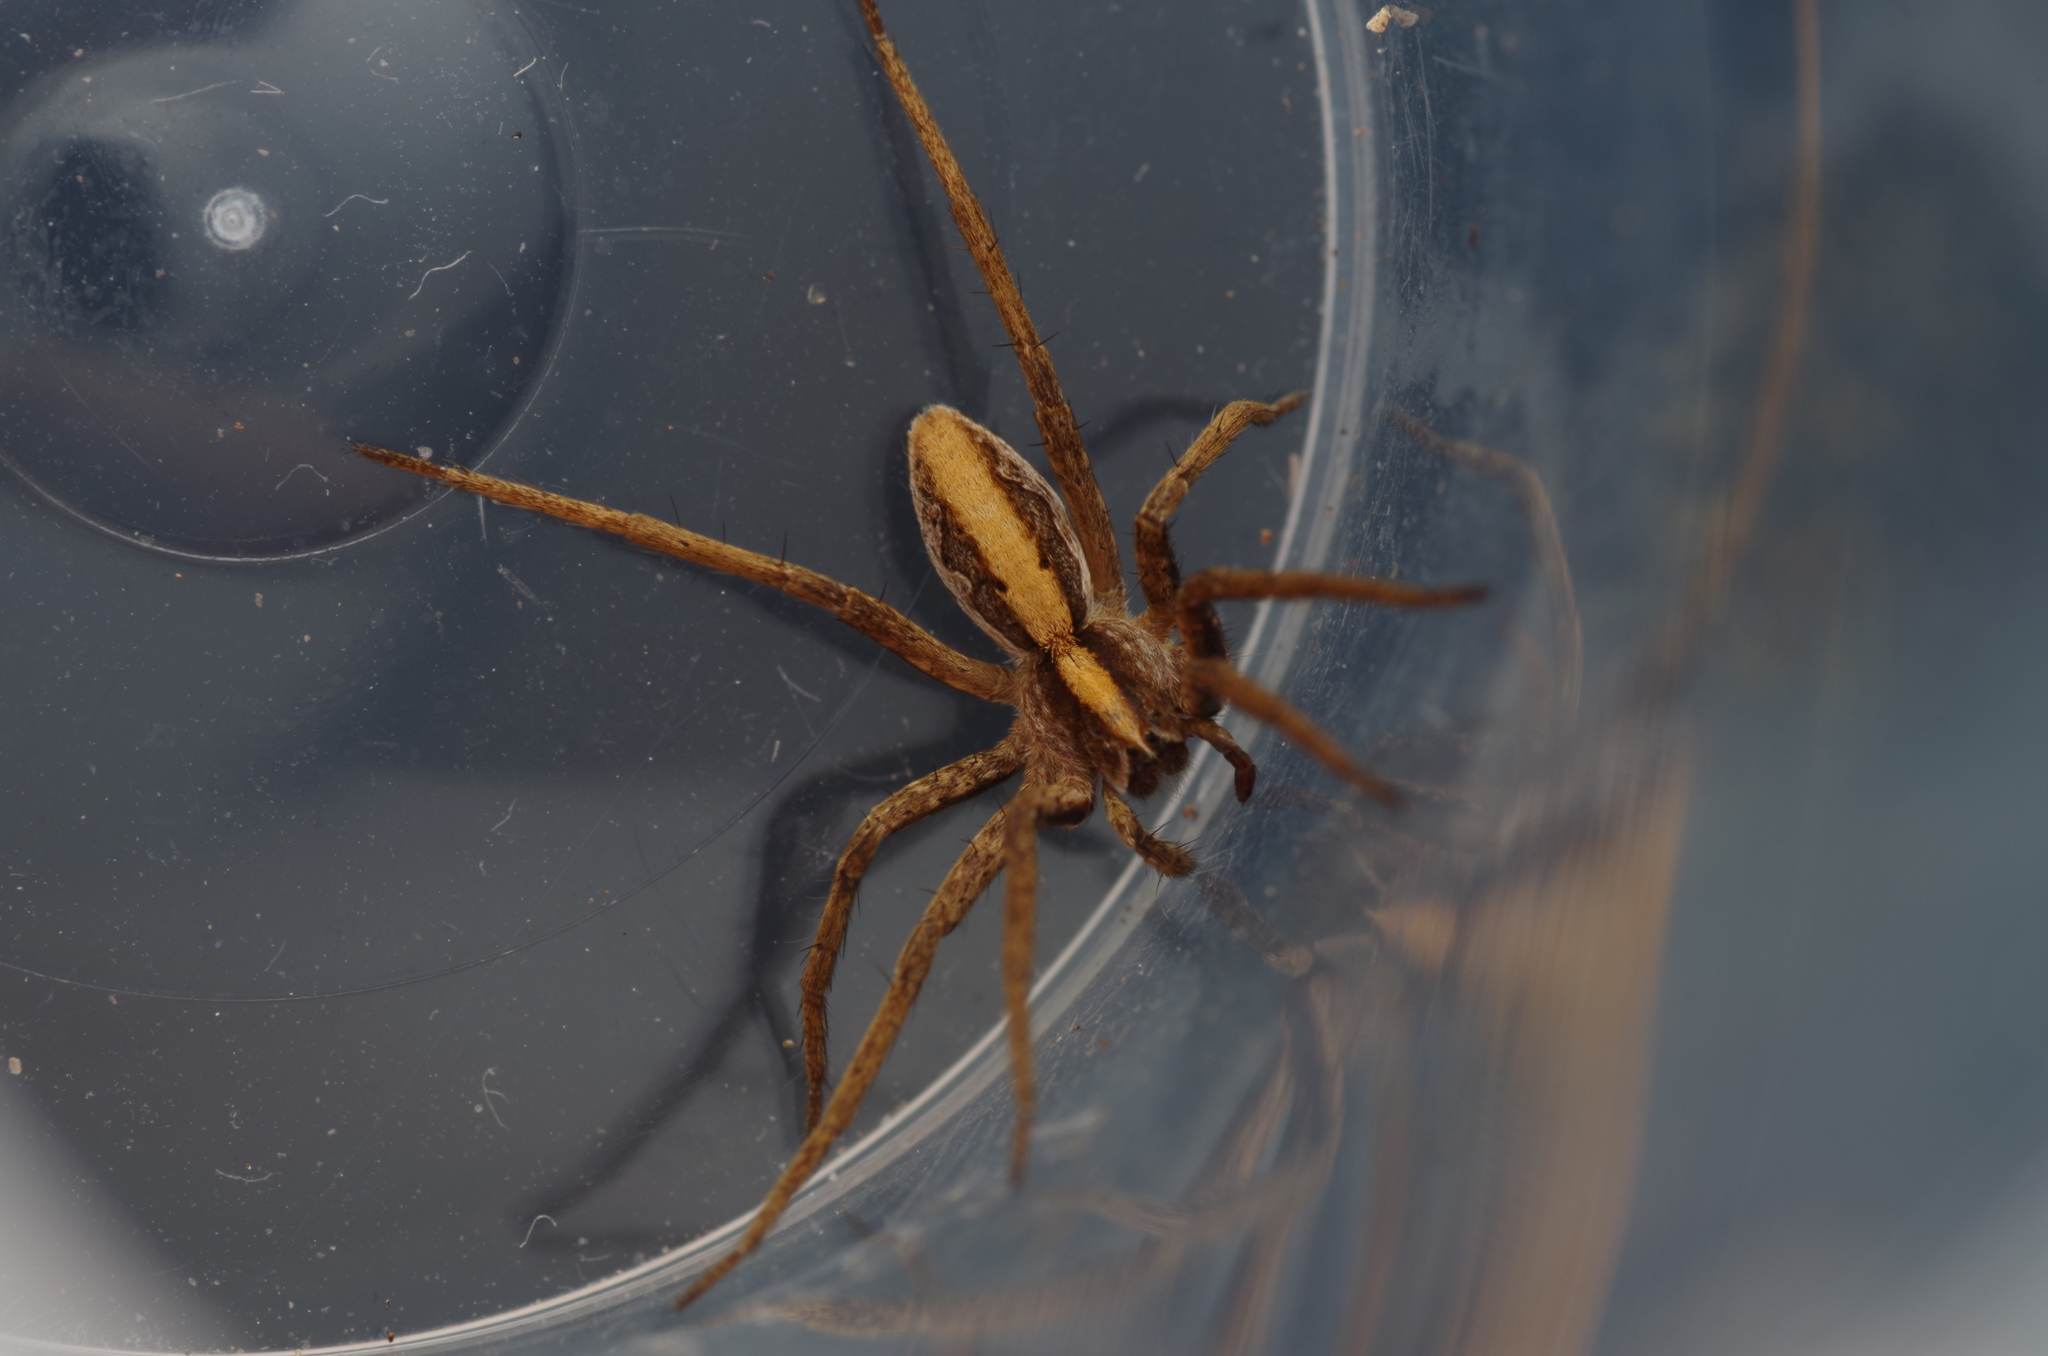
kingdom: Animalia
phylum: Arthropoda
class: Arachnida
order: Araneae
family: Pisauridae
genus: Pisaura
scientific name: Pisaura mirabilis
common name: Tent spider
